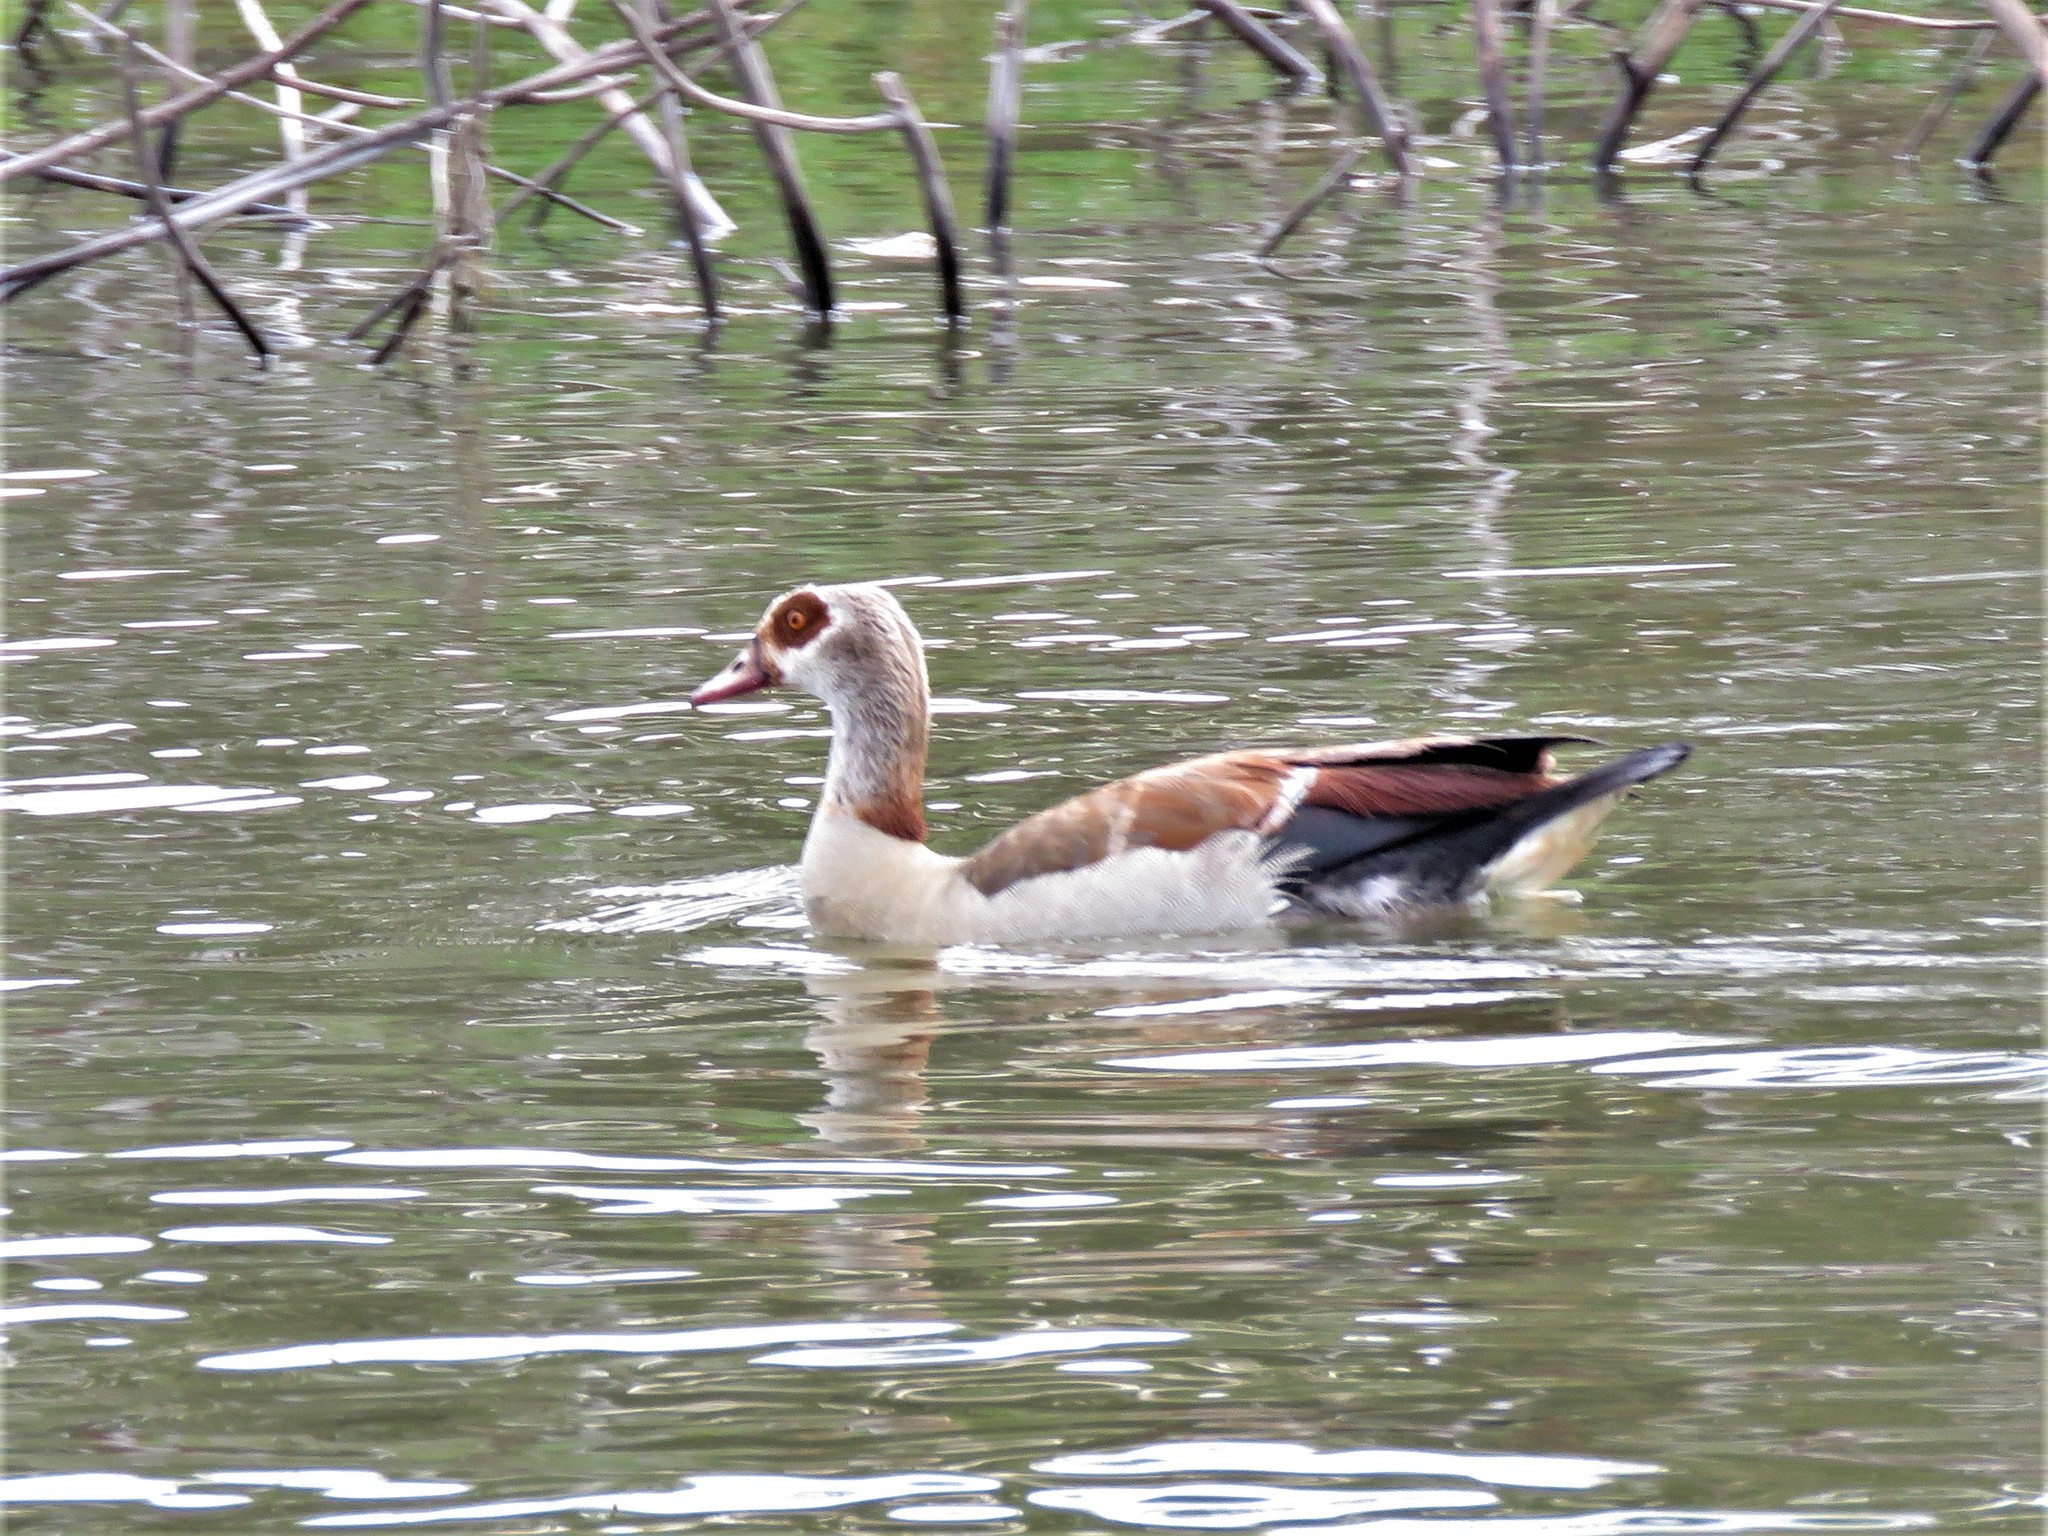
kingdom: Animalia
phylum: Chordata
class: Aves
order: Anseriformes
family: Anatidae
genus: Alopochen
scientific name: Alopochen aegyptiaca
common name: Egyptian goose
